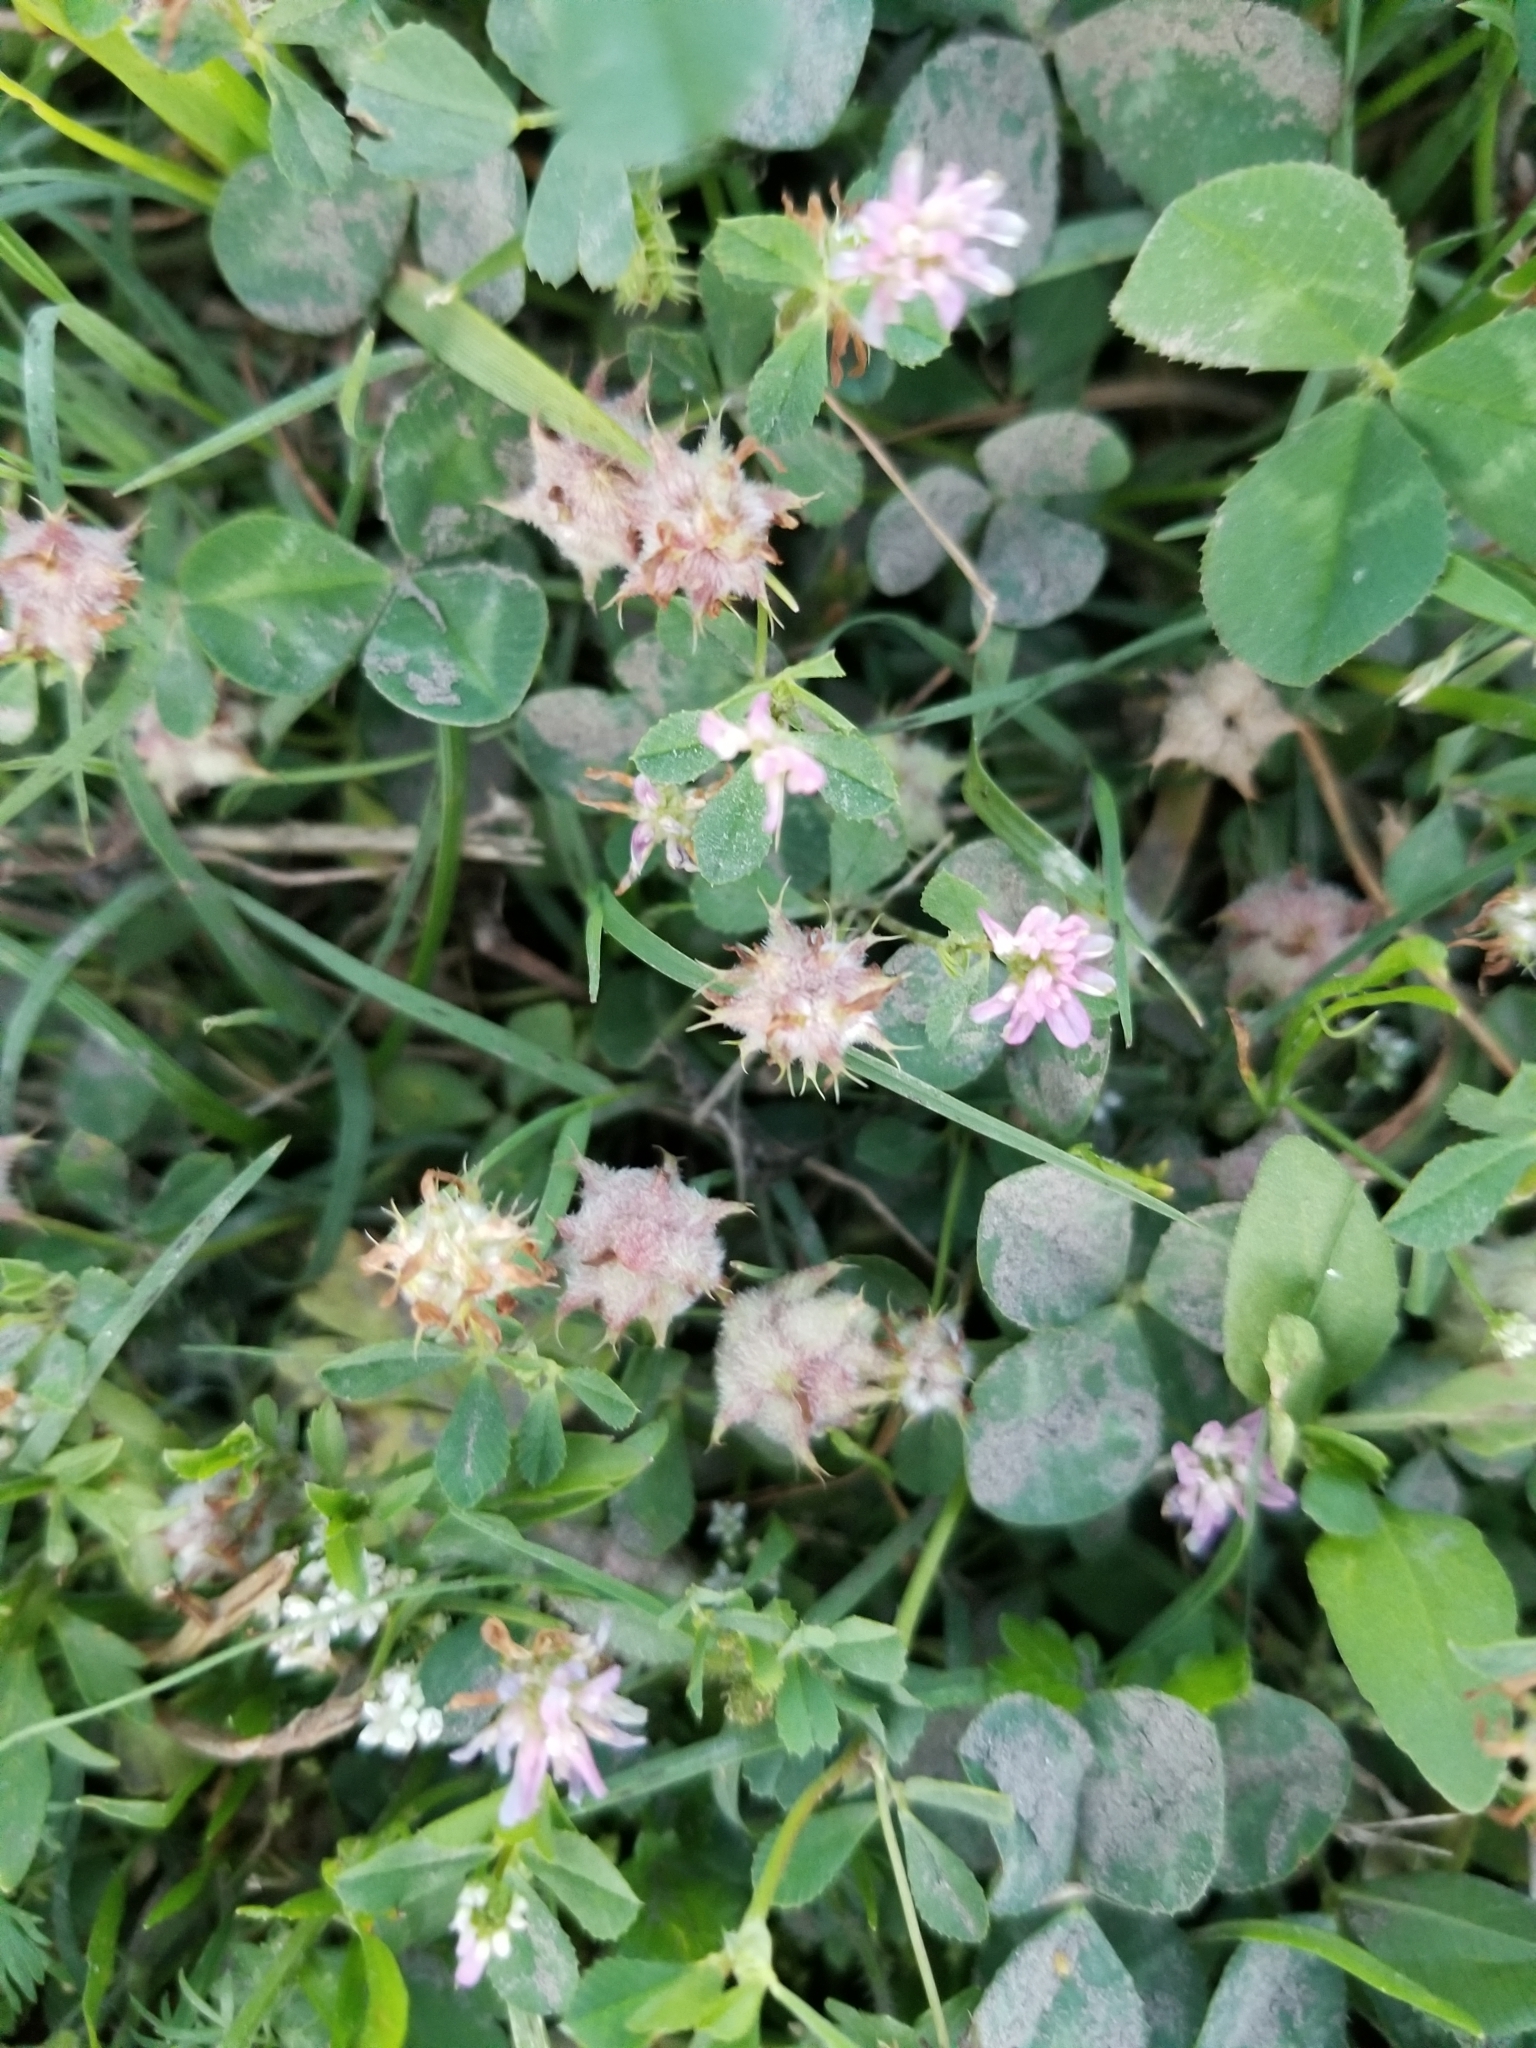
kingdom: Plantae
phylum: Tracheophyta
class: Magnoliopsida
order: Fabales
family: Fabaceae
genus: Trifolium
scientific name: Trifolium resupinatum
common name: Reversed clover
